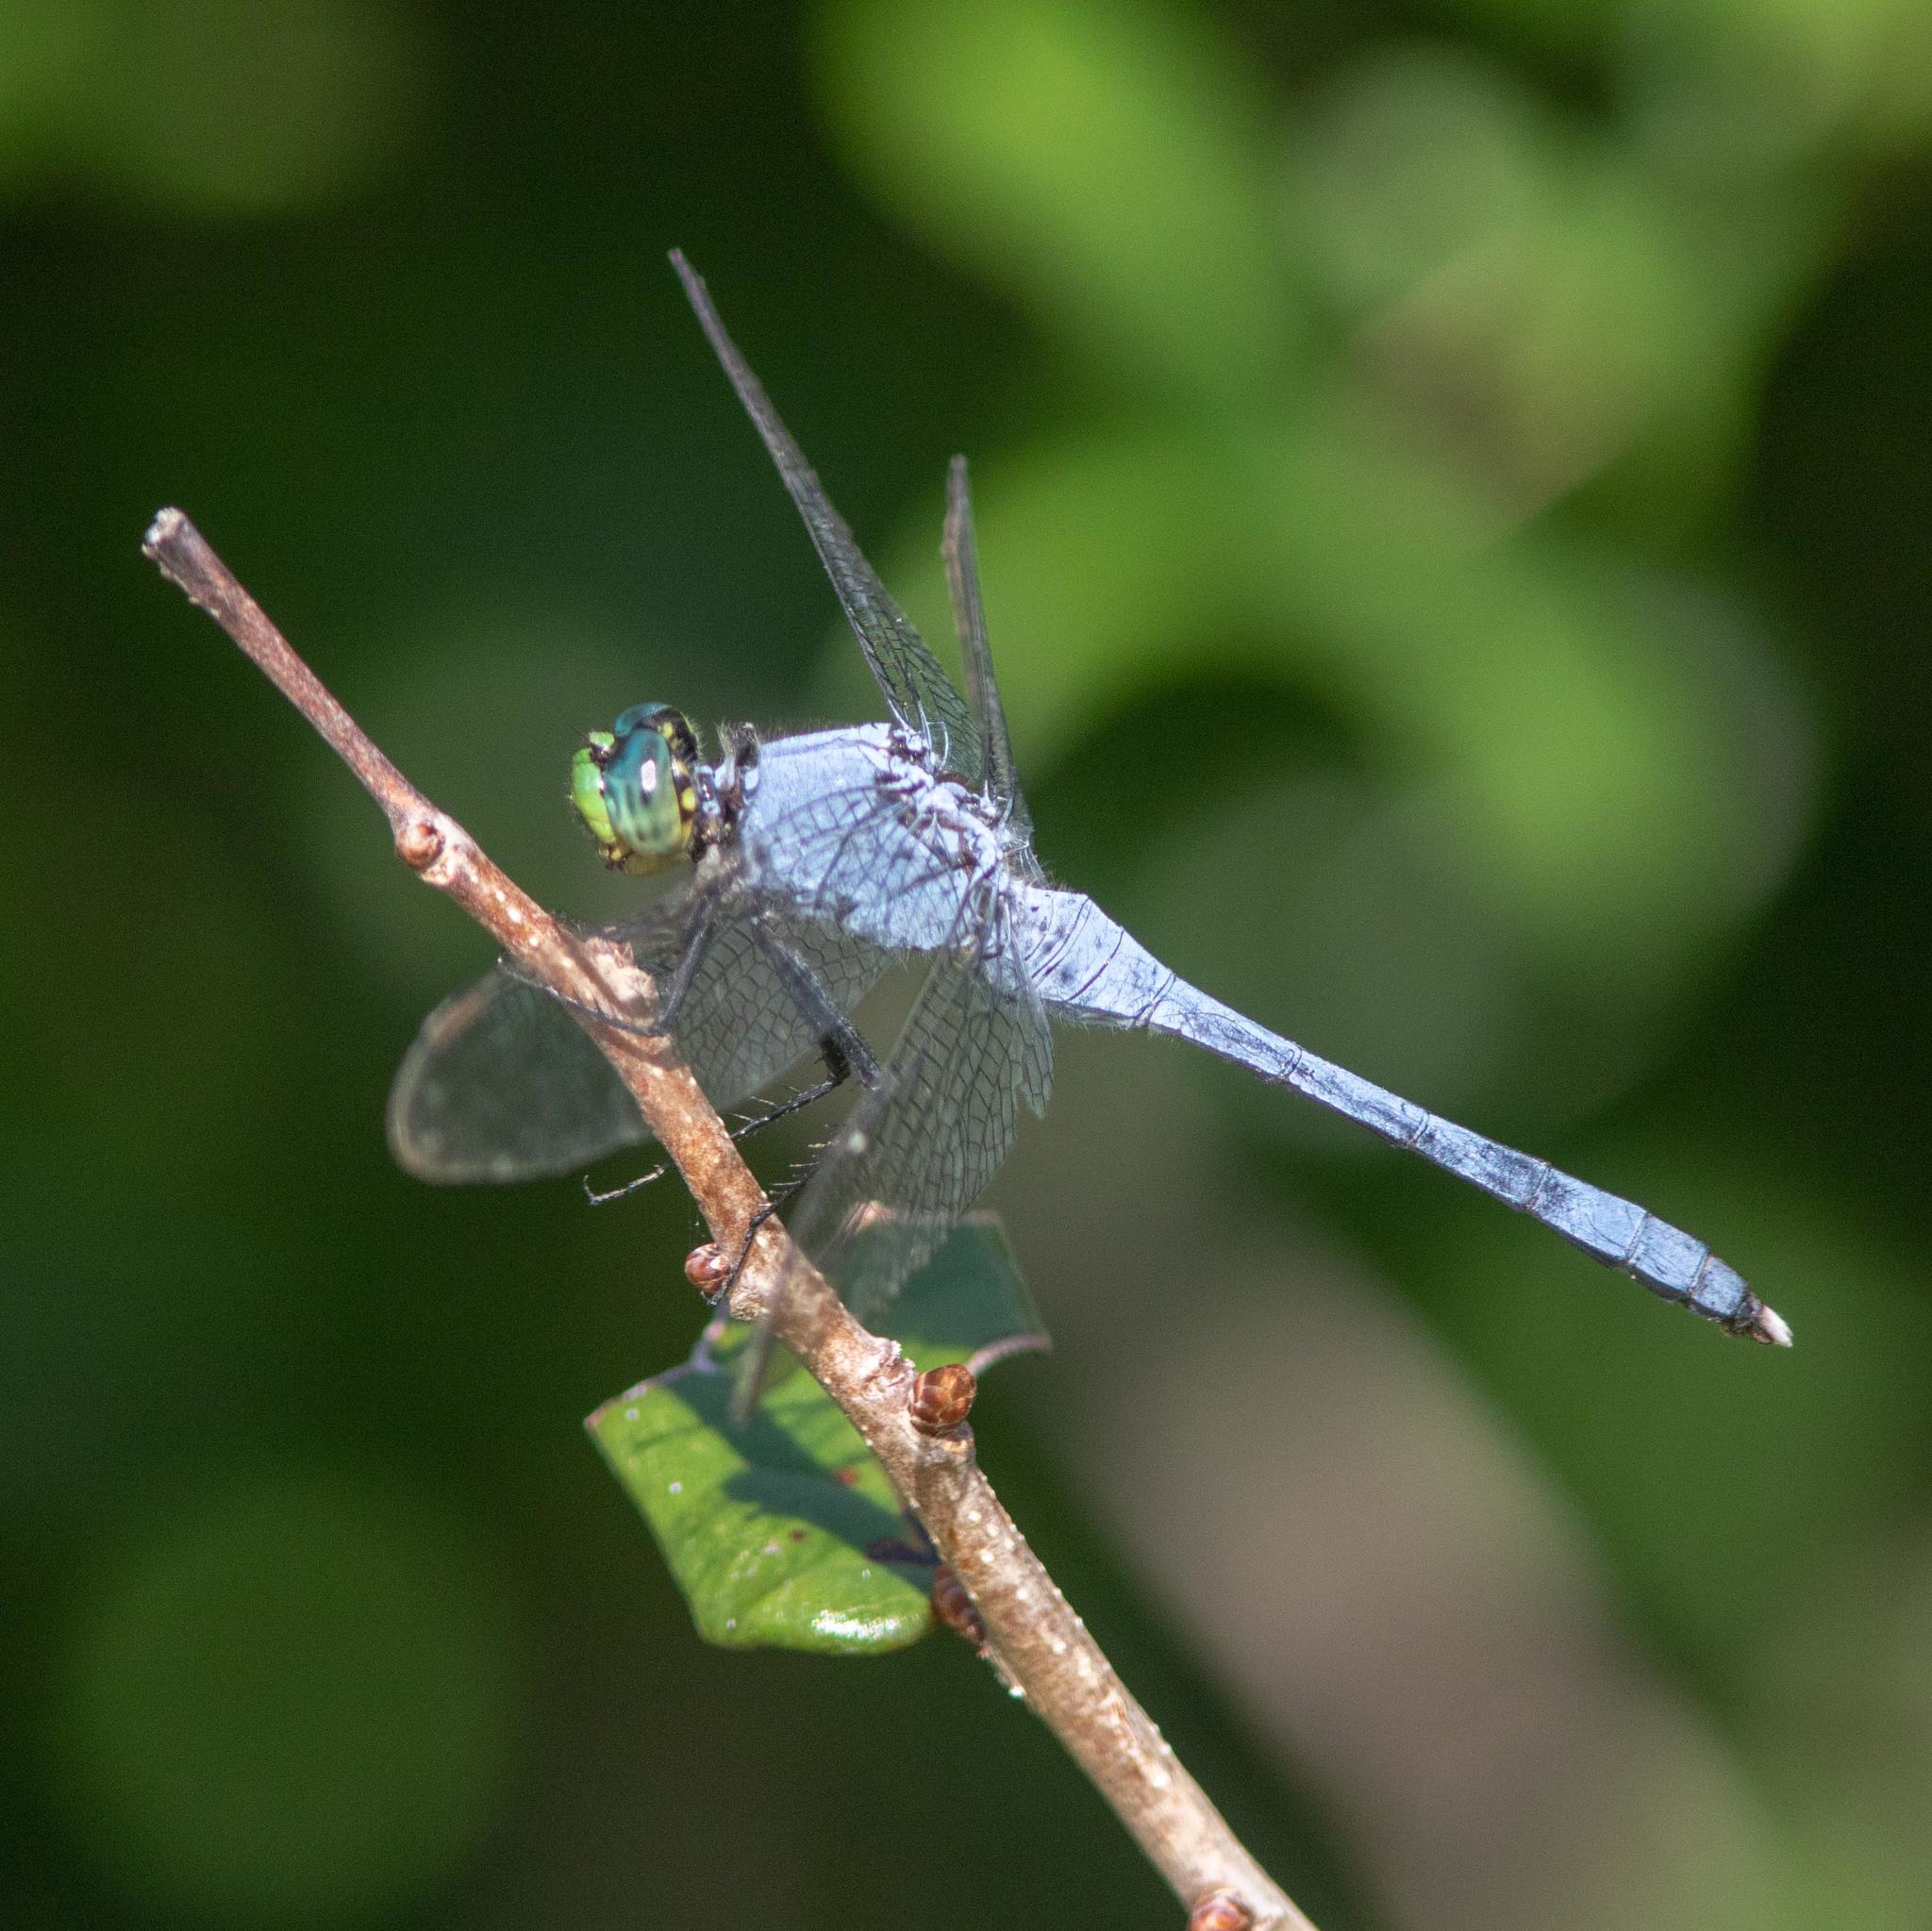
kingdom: Animalia
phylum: Arthropoda
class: Insecta
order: Odonata
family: Libellulidae
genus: Erythemis
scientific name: Erythemis simplicicollis
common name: Eastern pondhawk
